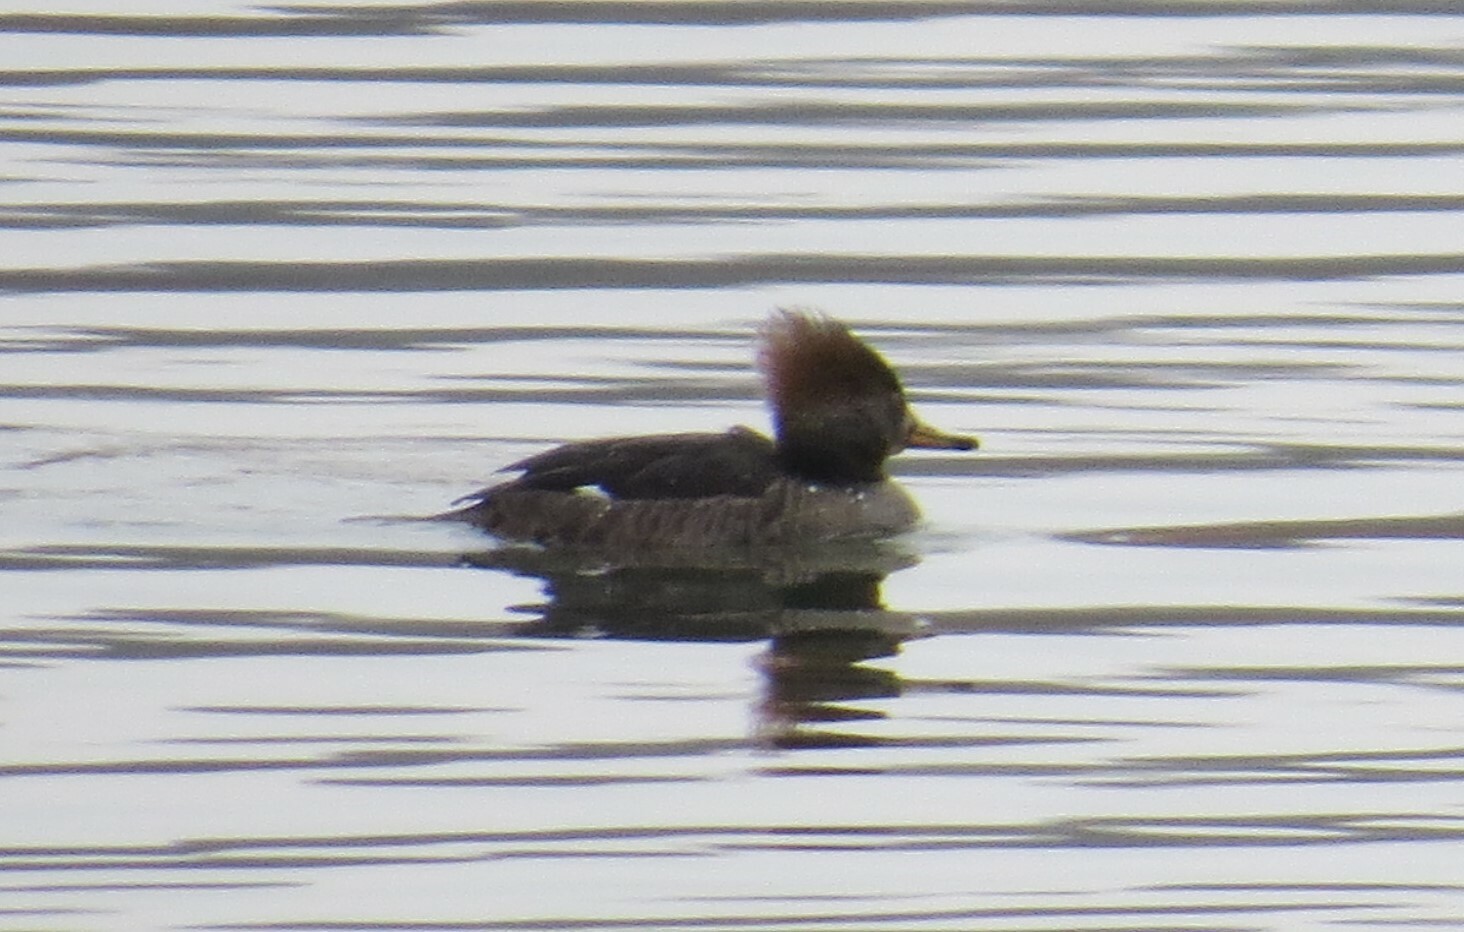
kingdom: Animalia
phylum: Chordata
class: Aves
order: Anseriformes
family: Anatidae
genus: Lophodytes
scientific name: Lophodytes cucullatus
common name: Hooded merganser
